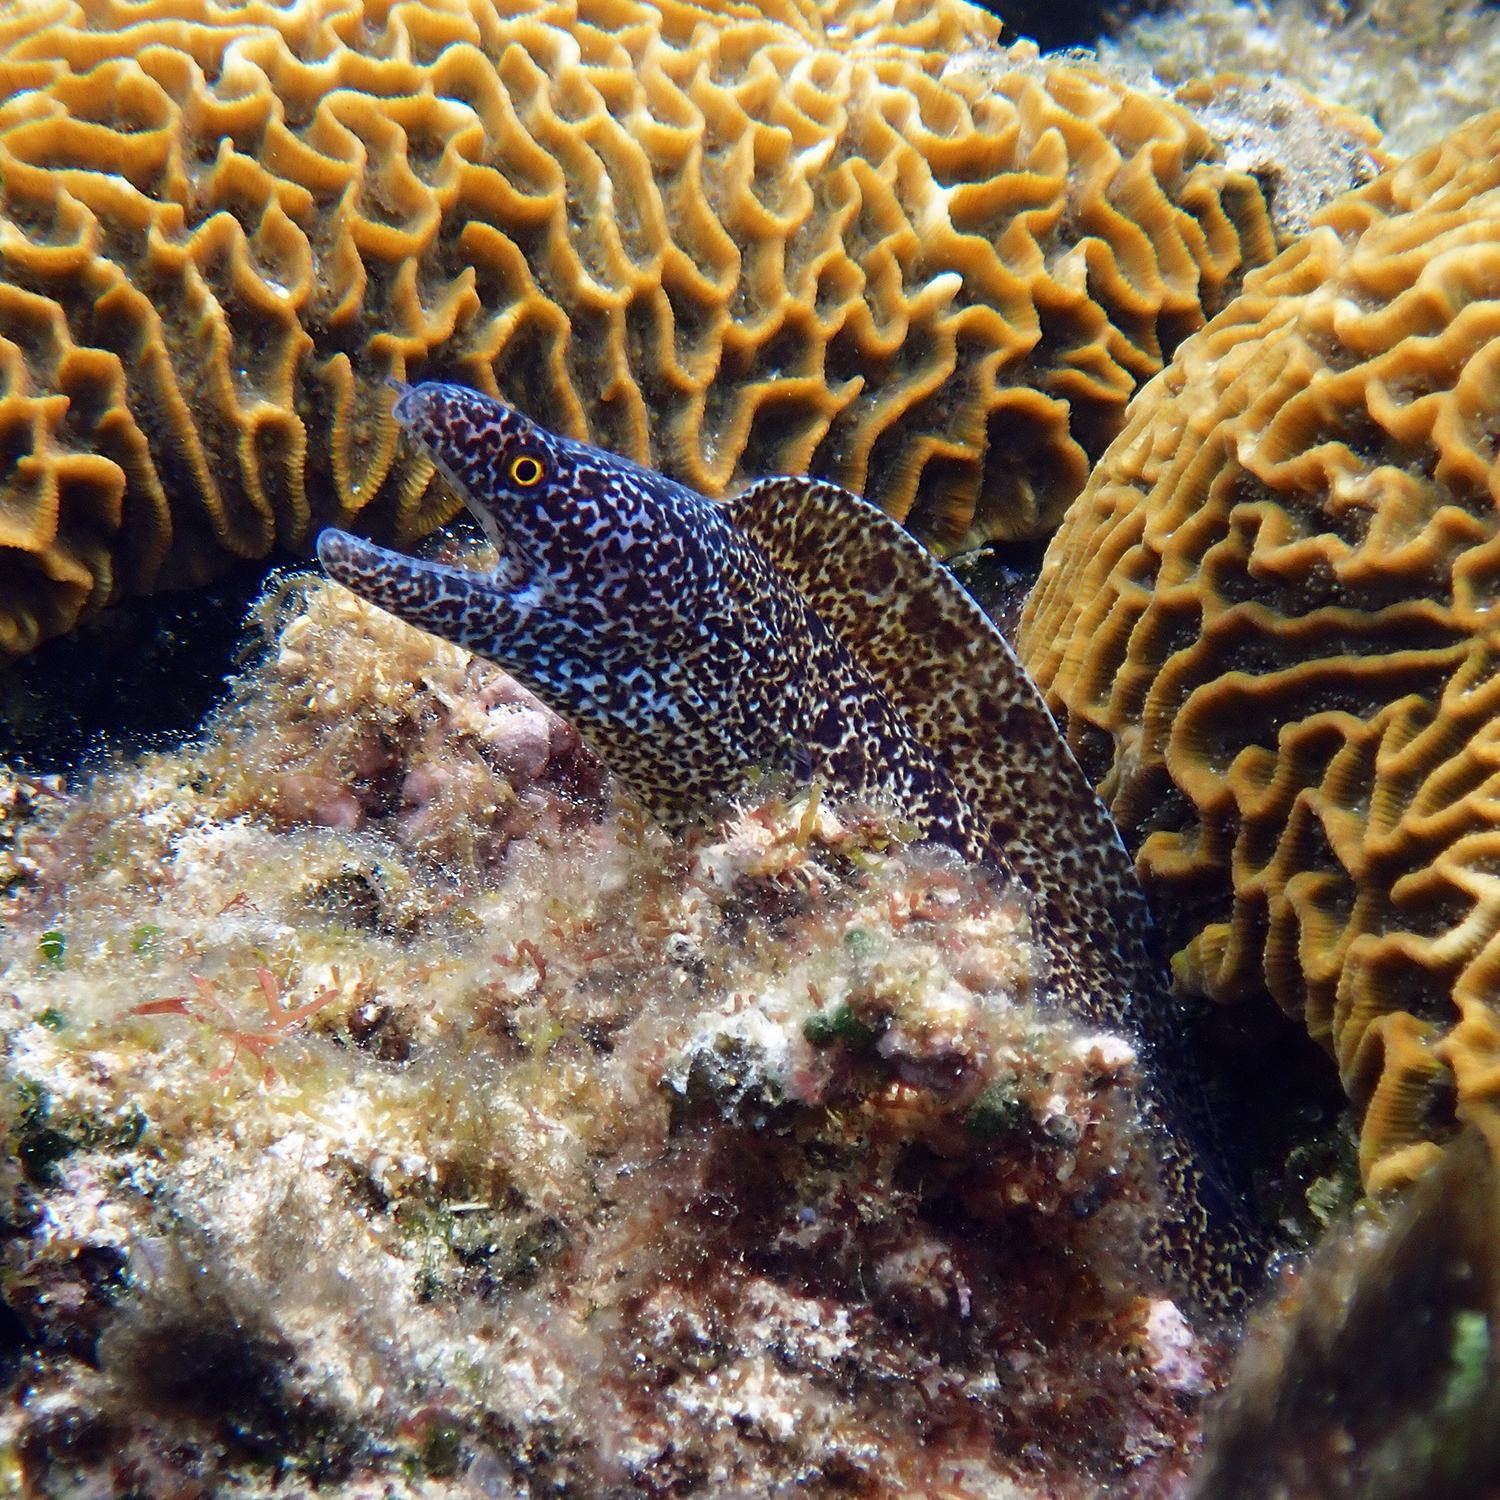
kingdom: Animalia
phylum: Chordata
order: Anguilliformes
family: Muraenidae
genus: Gymnothorax
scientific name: Gymnothorax annasona
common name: Lord howe island moray
